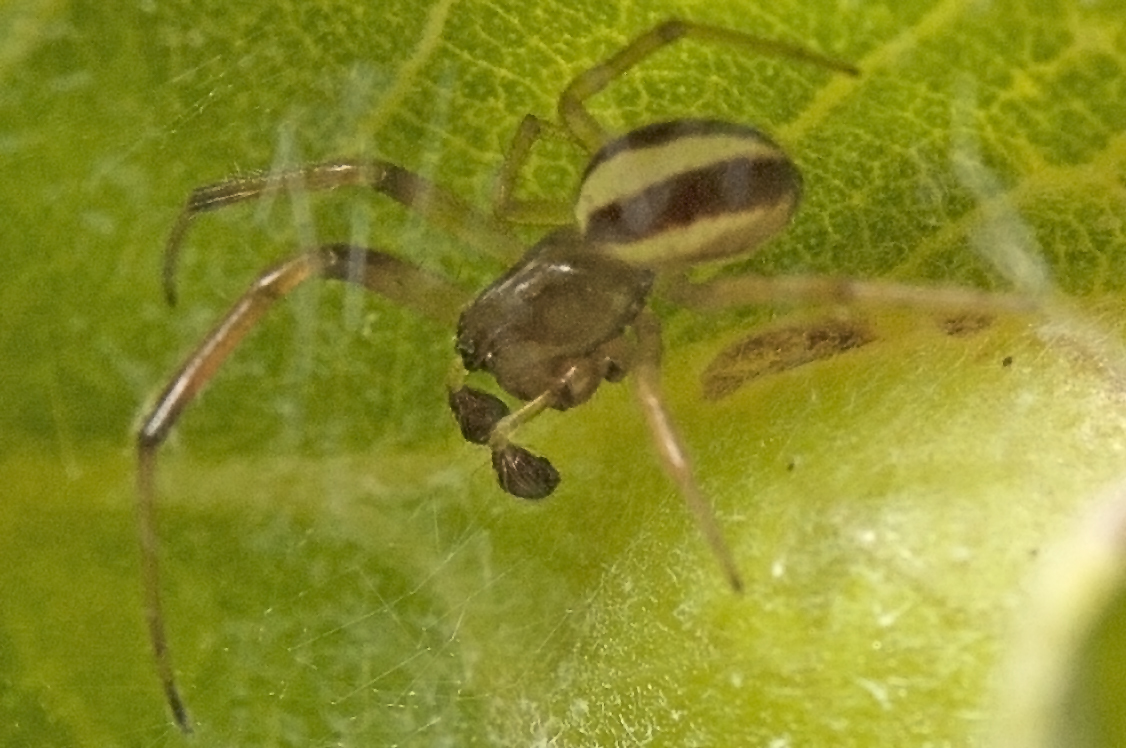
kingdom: Animalia
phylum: Arthropoda
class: Arachnida
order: Araneae
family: Araneidae
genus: Deliochus
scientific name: Deliochus idoneus
